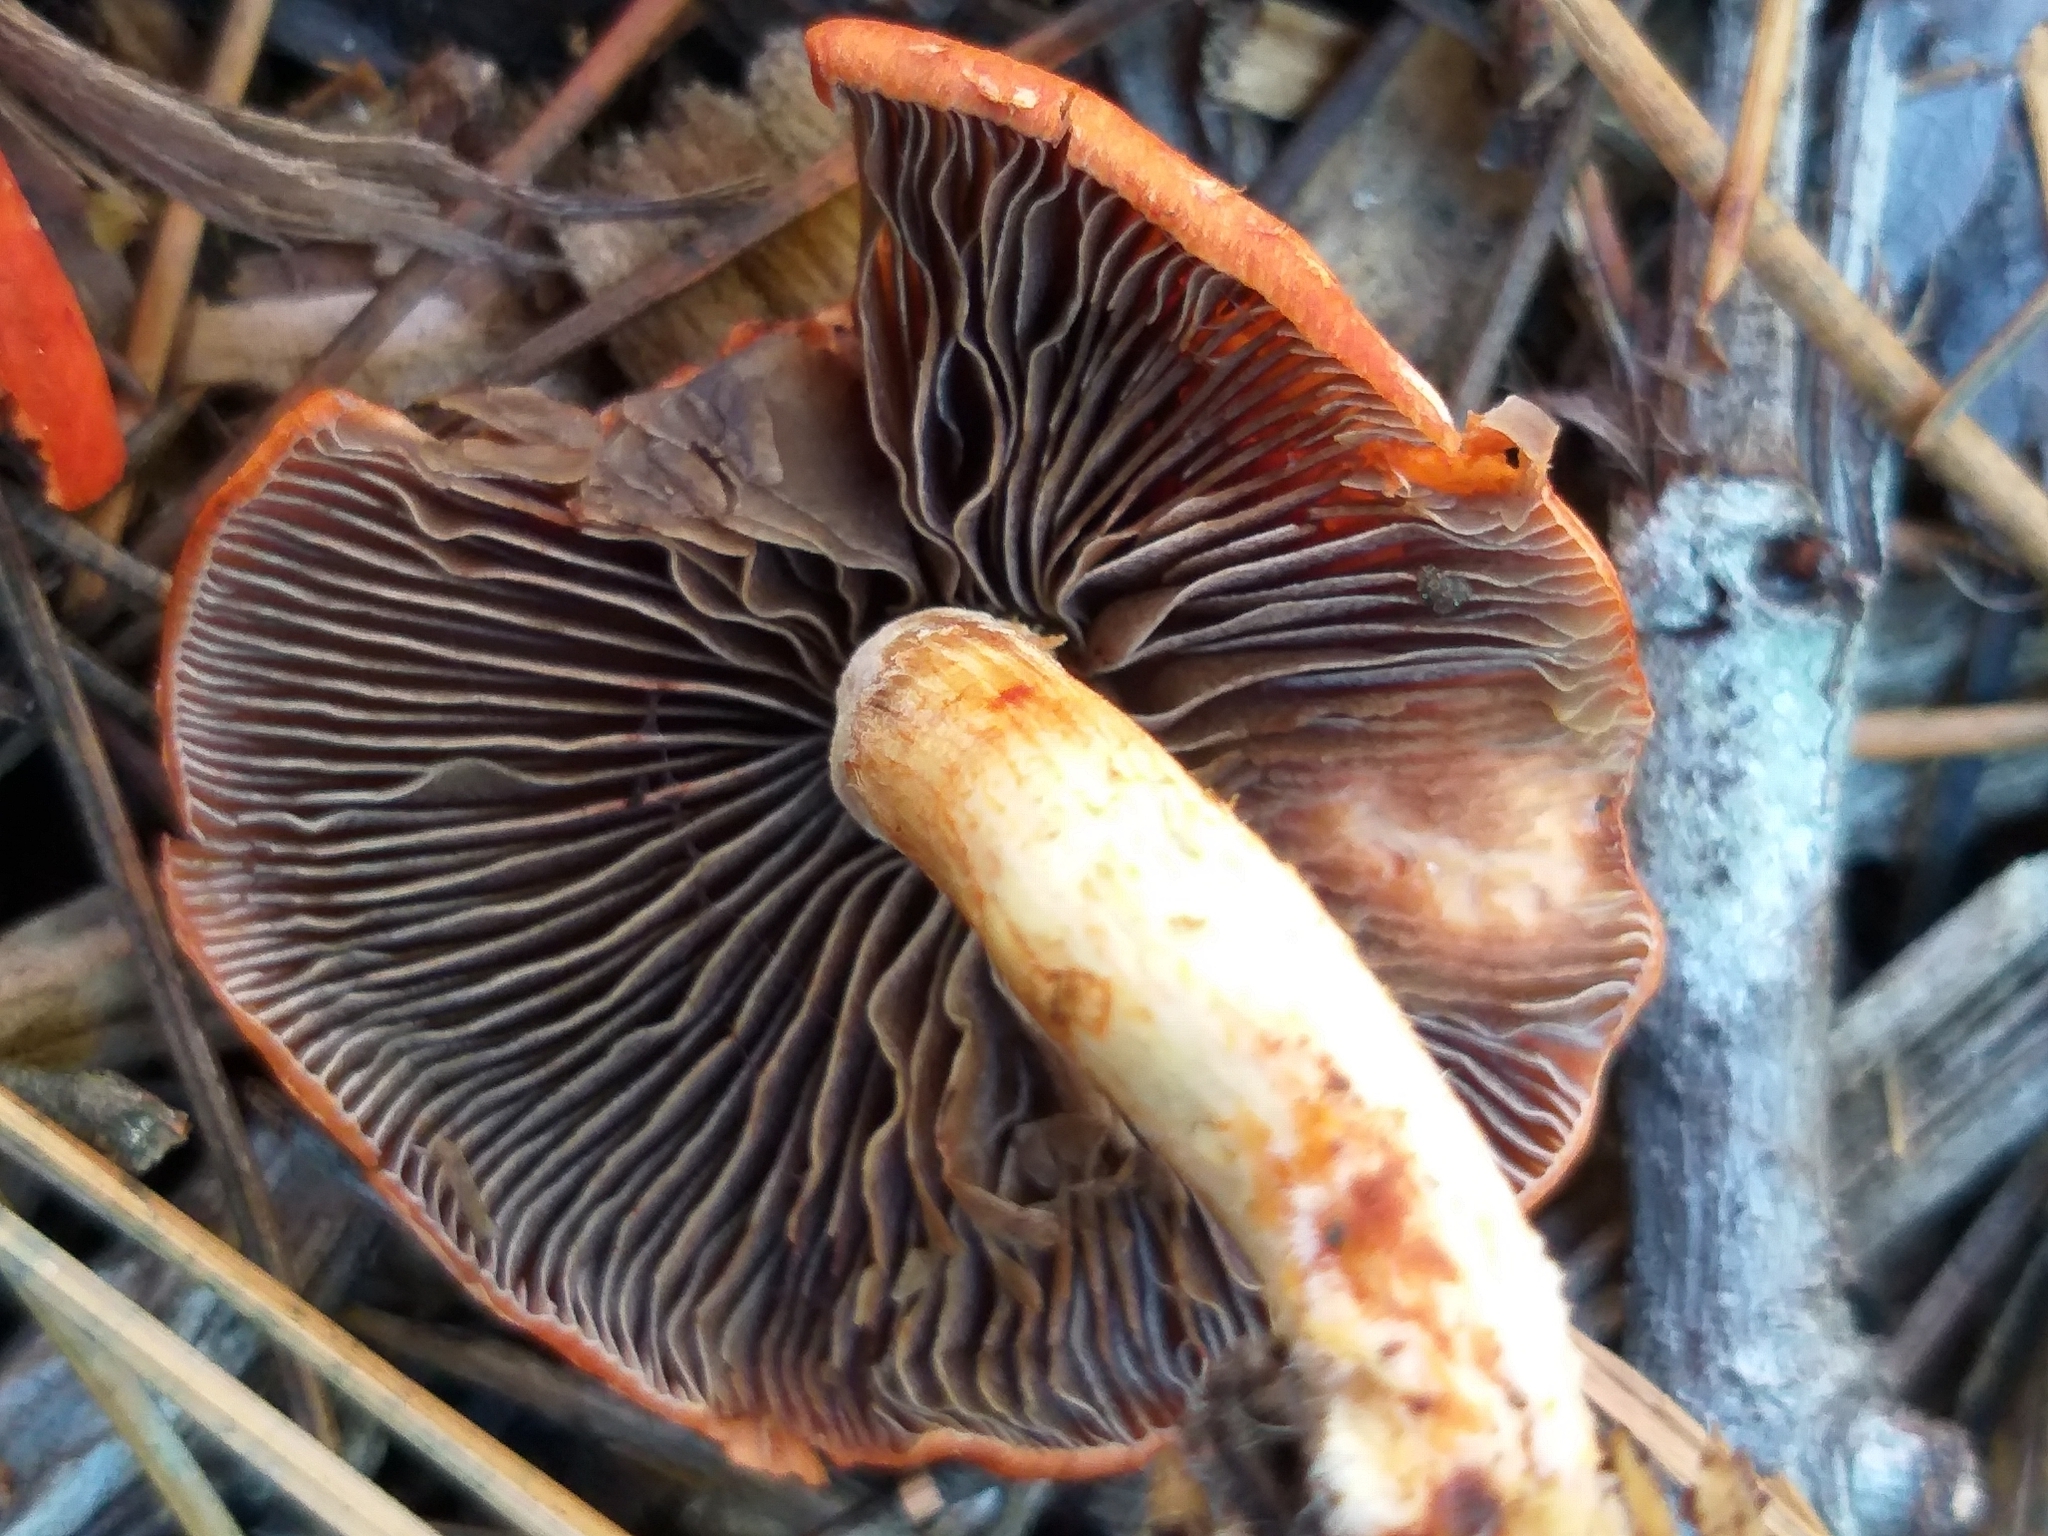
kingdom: Fungi
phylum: Basidiomycota
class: Agaricomycetes
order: Agaricales
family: Strophariaceae
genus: Leratiomyces
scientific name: Leratiomyces ceres
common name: Redlead roundhead
